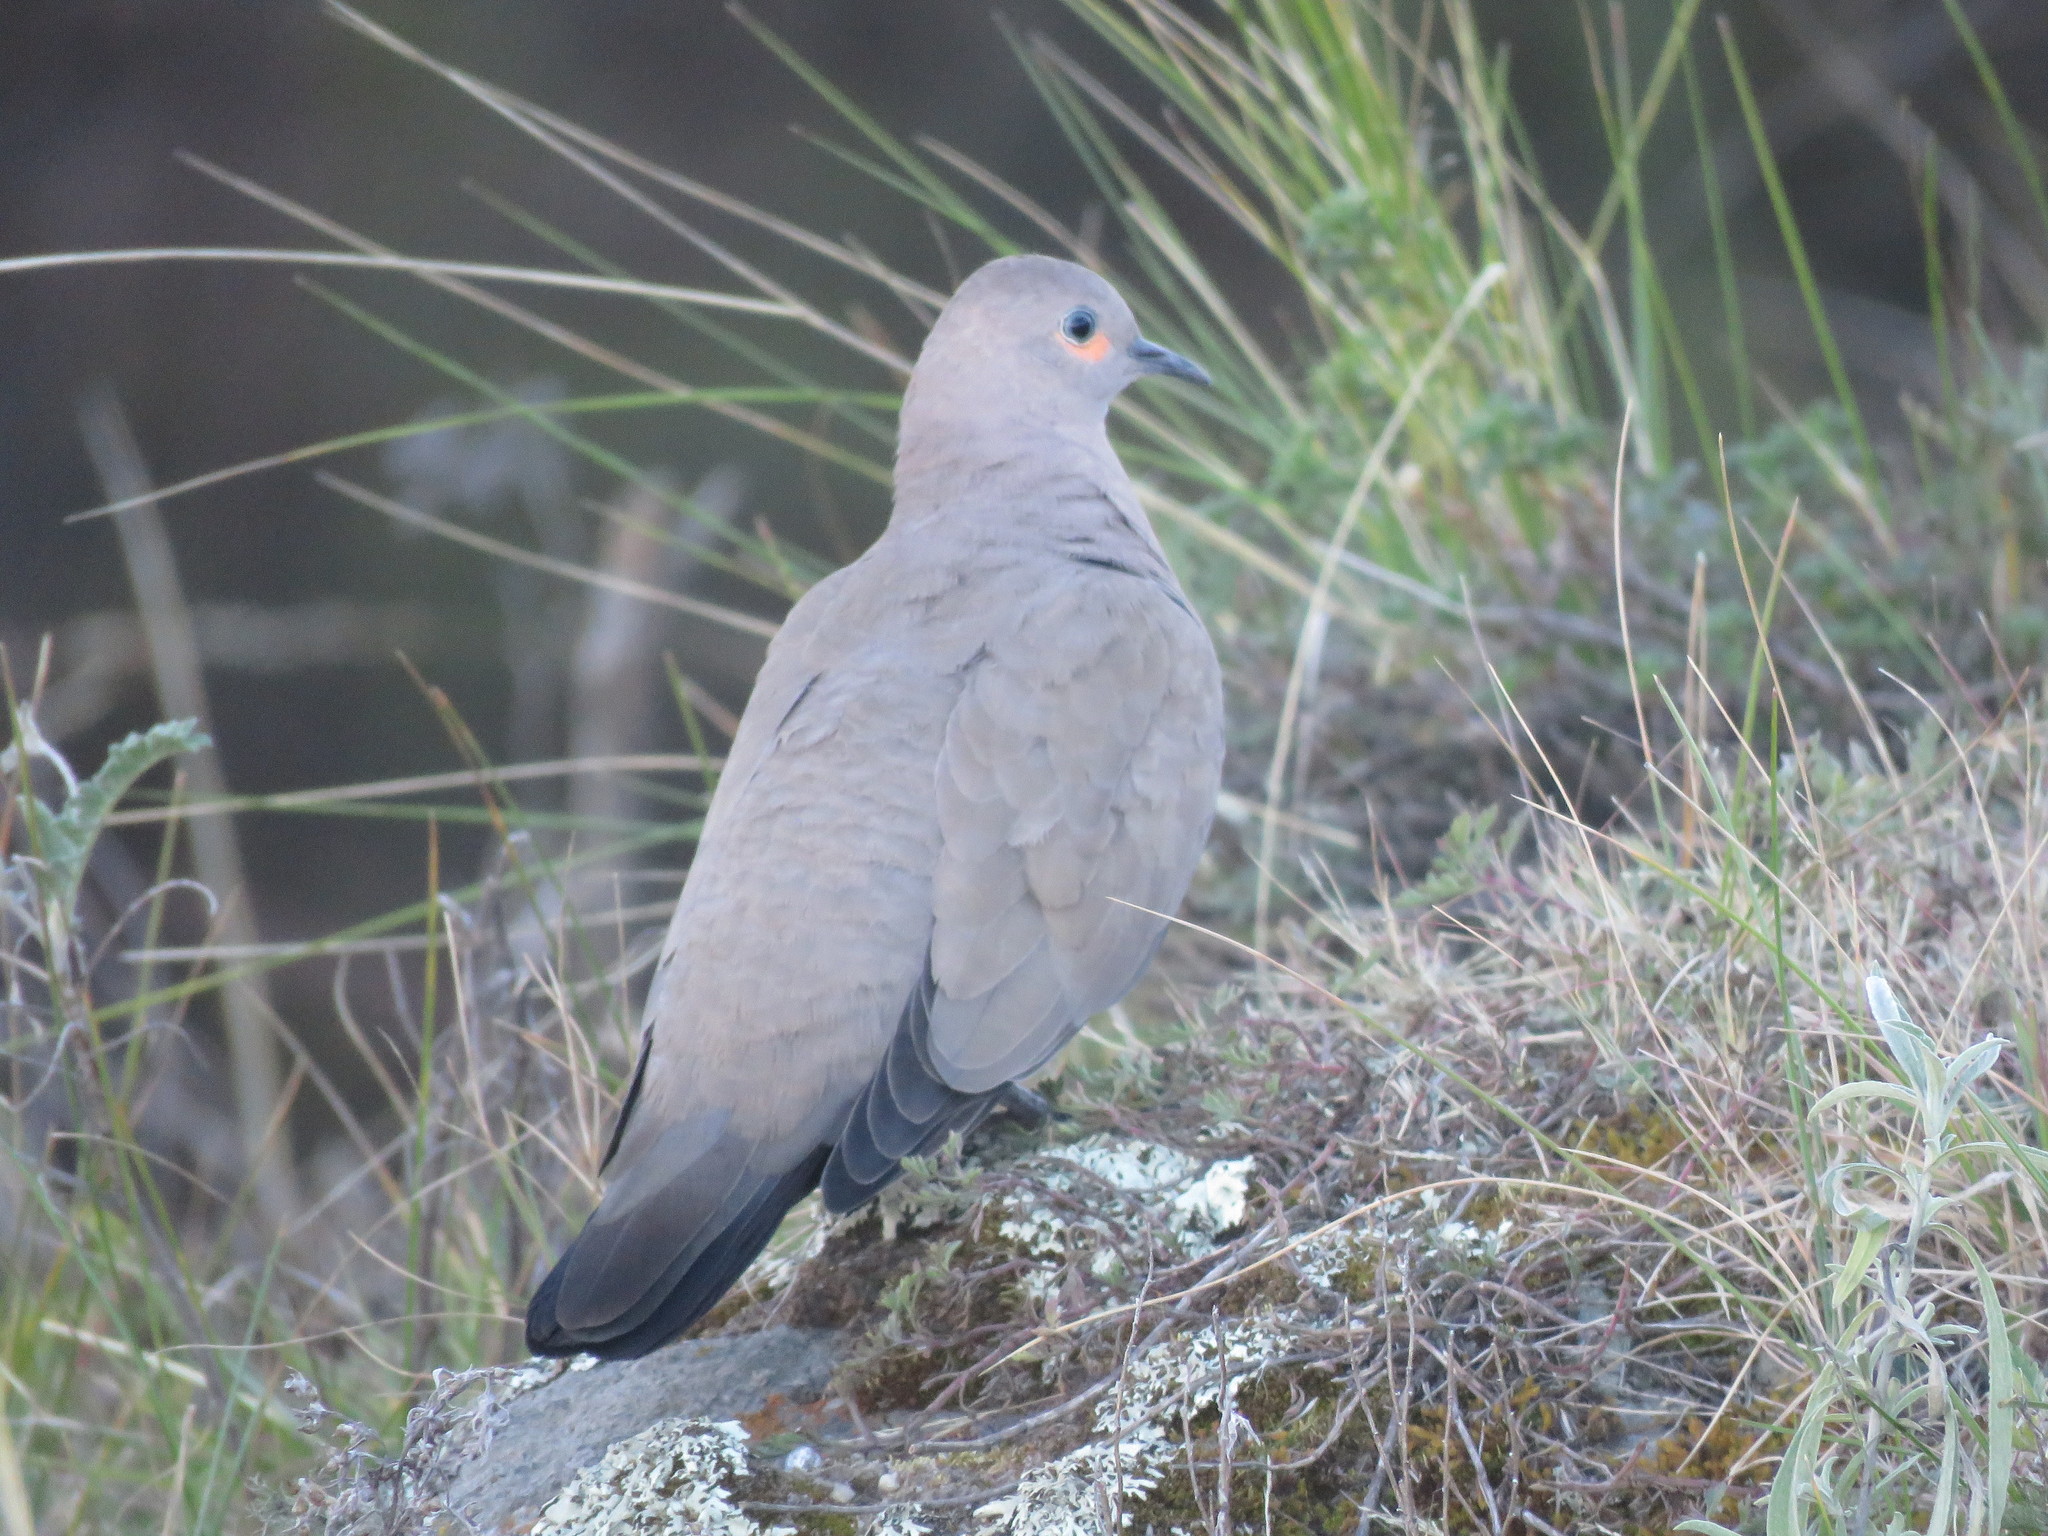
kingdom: Animalia
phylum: Chordata
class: Aves
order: Columbiformes
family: Columbidae
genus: Metriopelia
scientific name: Metriopelia melanoptera
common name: Black-winged ground dove
